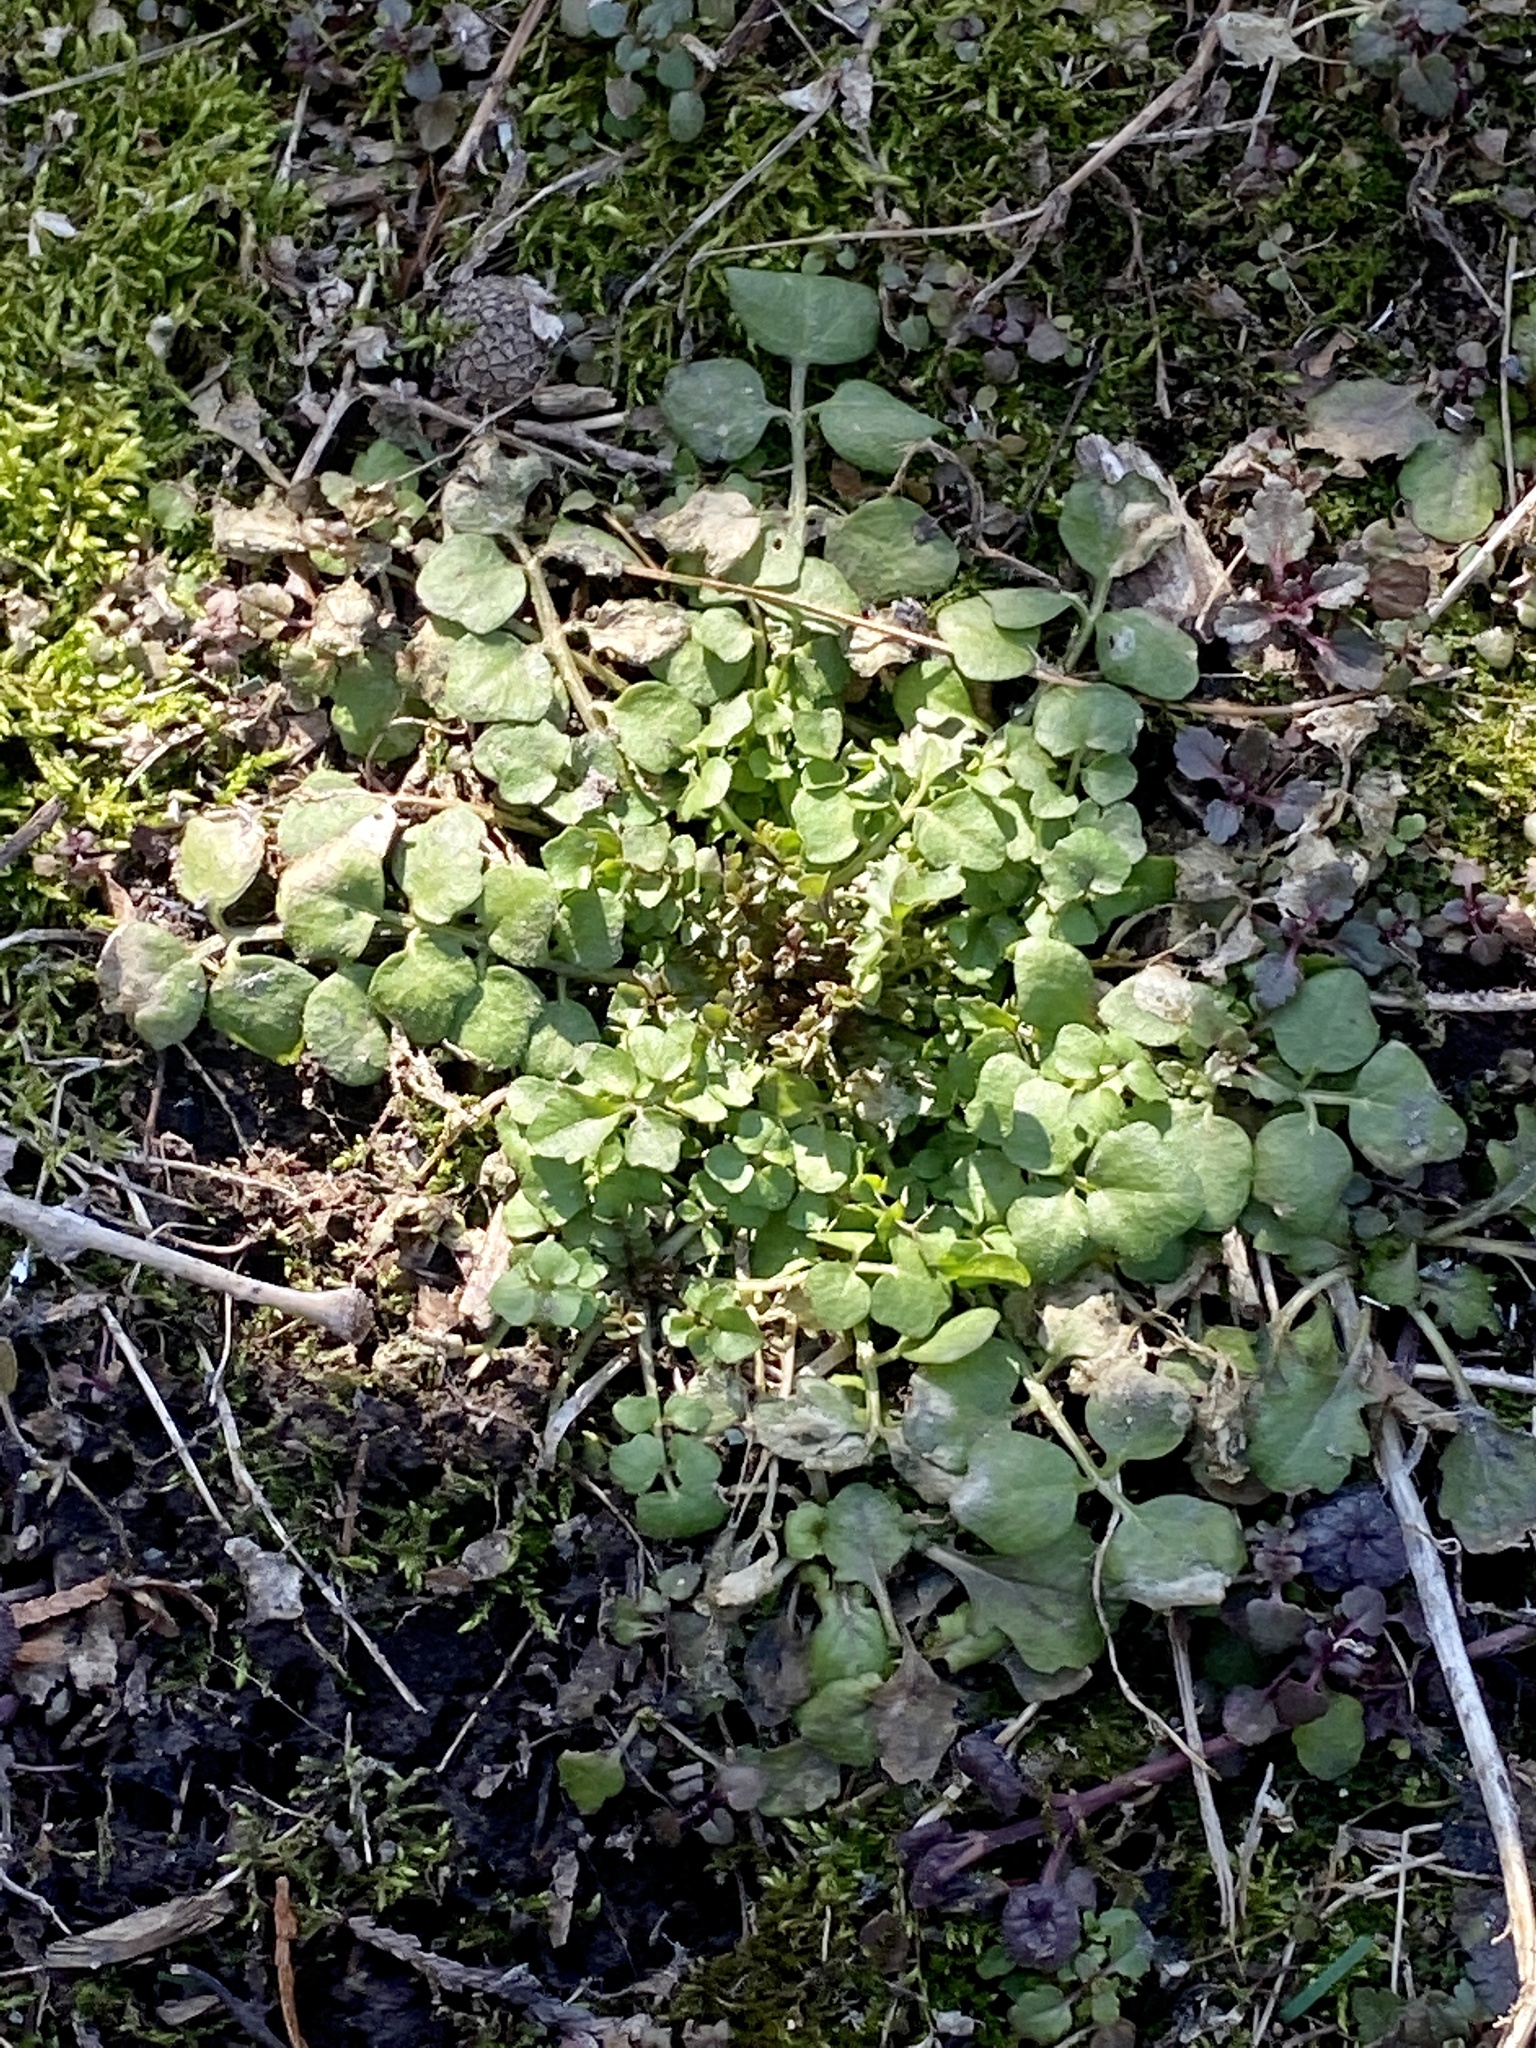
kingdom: Plantae
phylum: Tracheophyta
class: Magnoliopsida
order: Brassicales
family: Brassicaceae
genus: Cardamine
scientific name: Cardamine hirsuta
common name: Hairy bittercress
